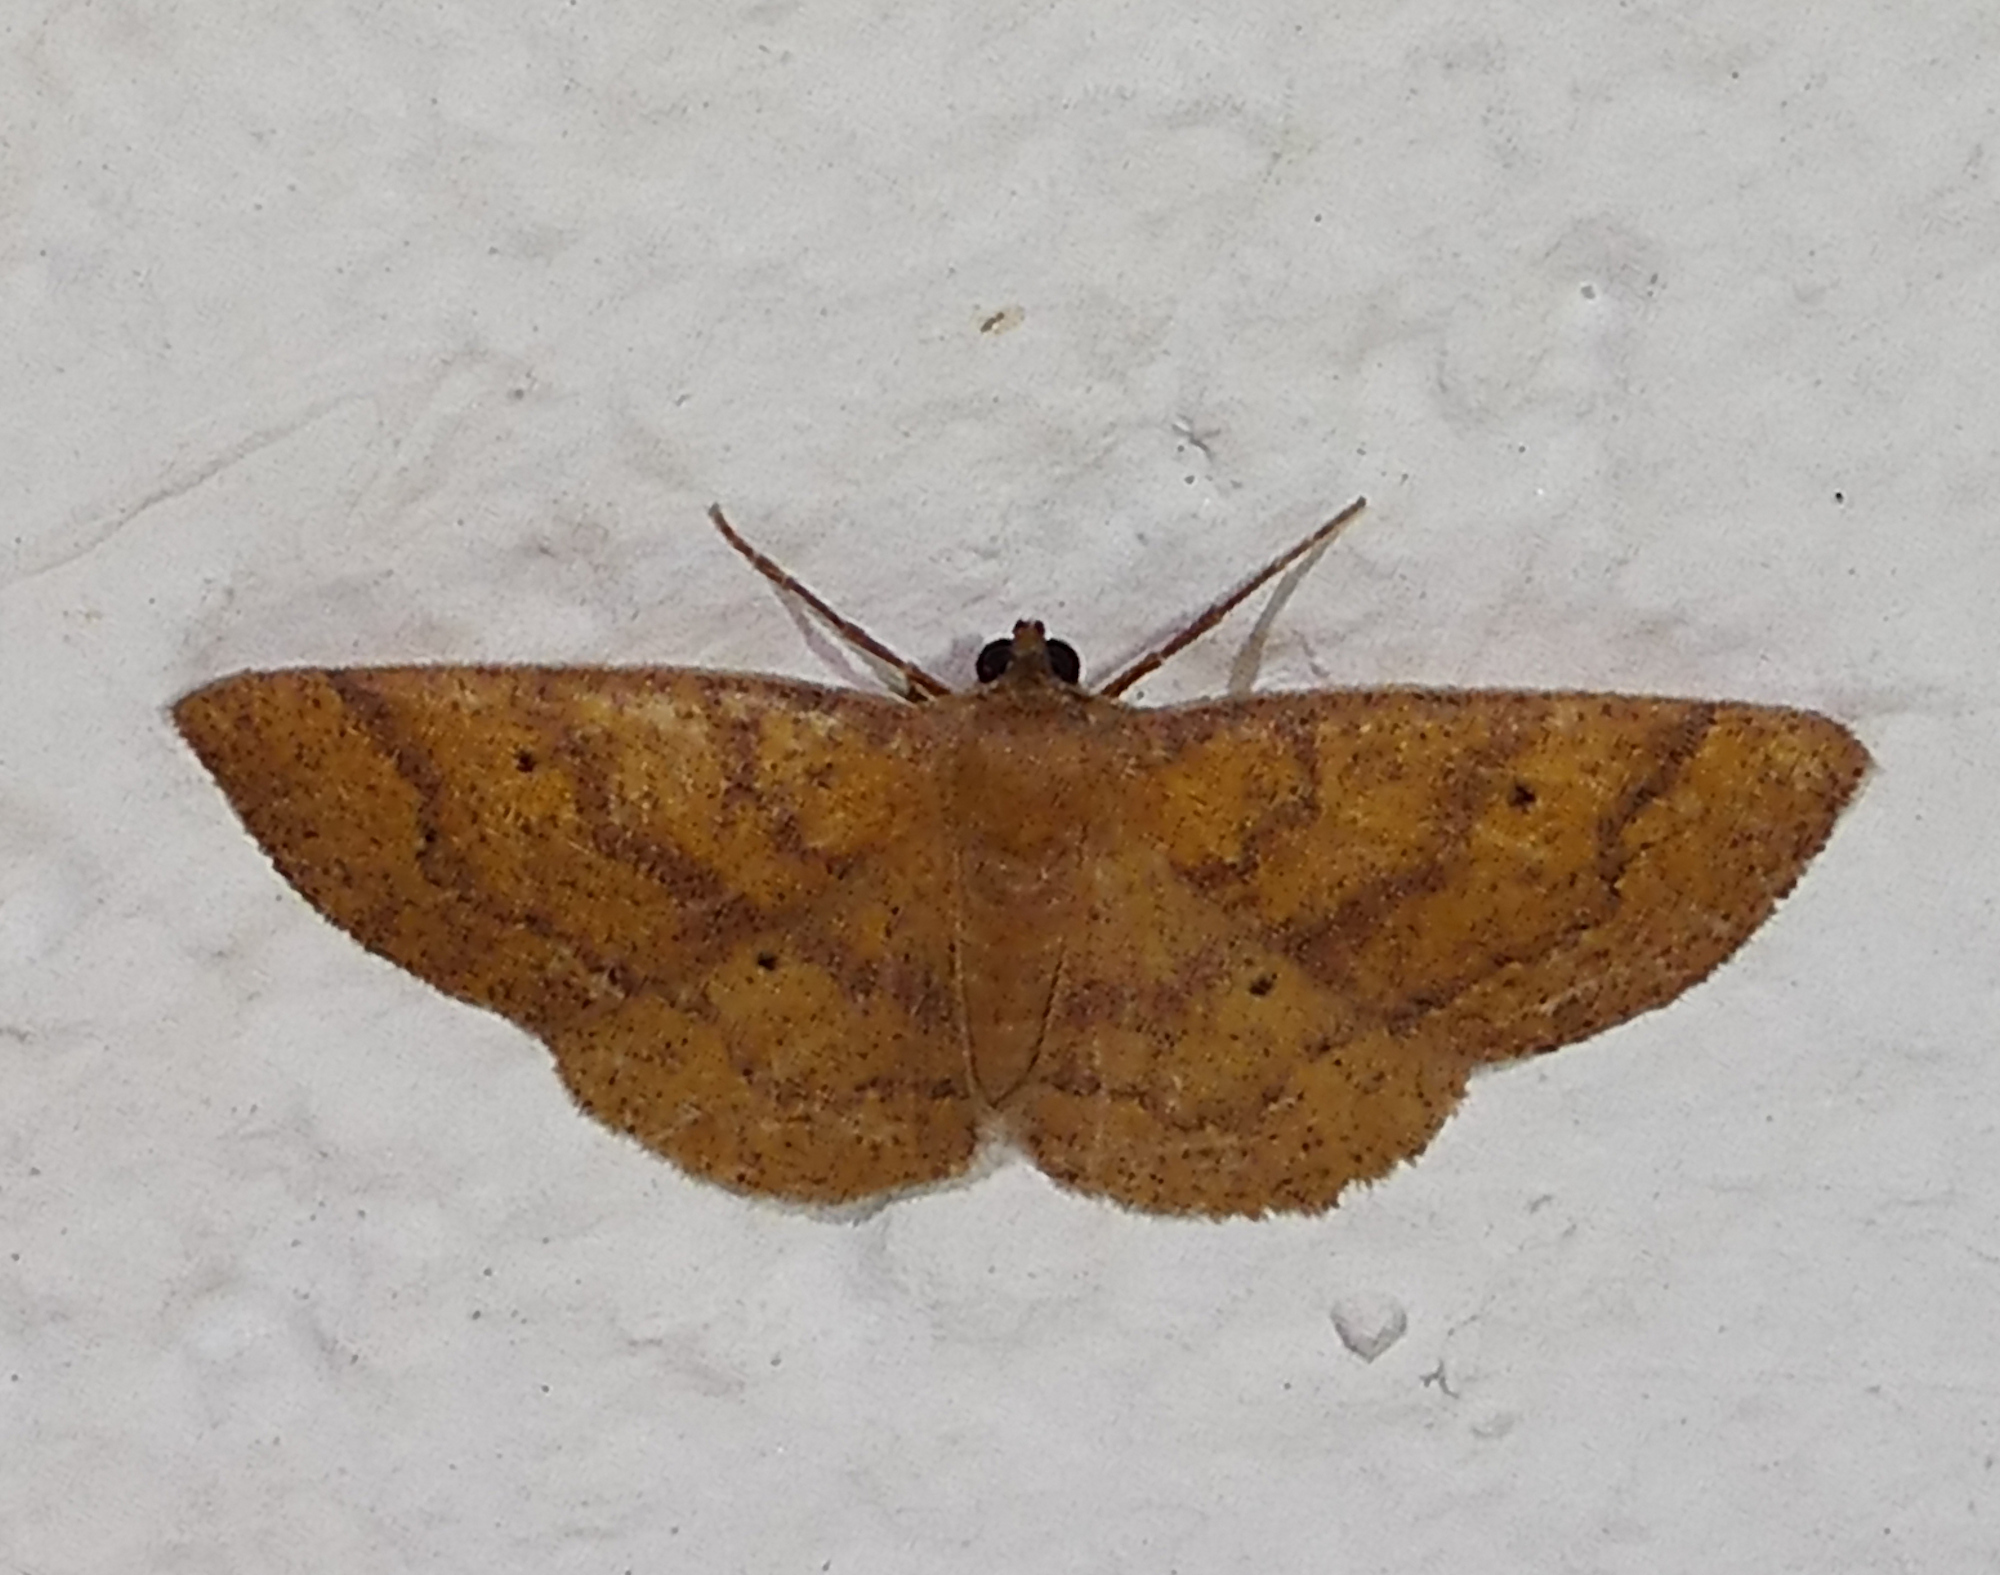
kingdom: Animalia
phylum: Arthropoda
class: Insecta
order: Lepidoptera
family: Geometridae
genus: Ilexia
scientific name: Ilexia intractata
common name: Black-dotted ruddy moth
